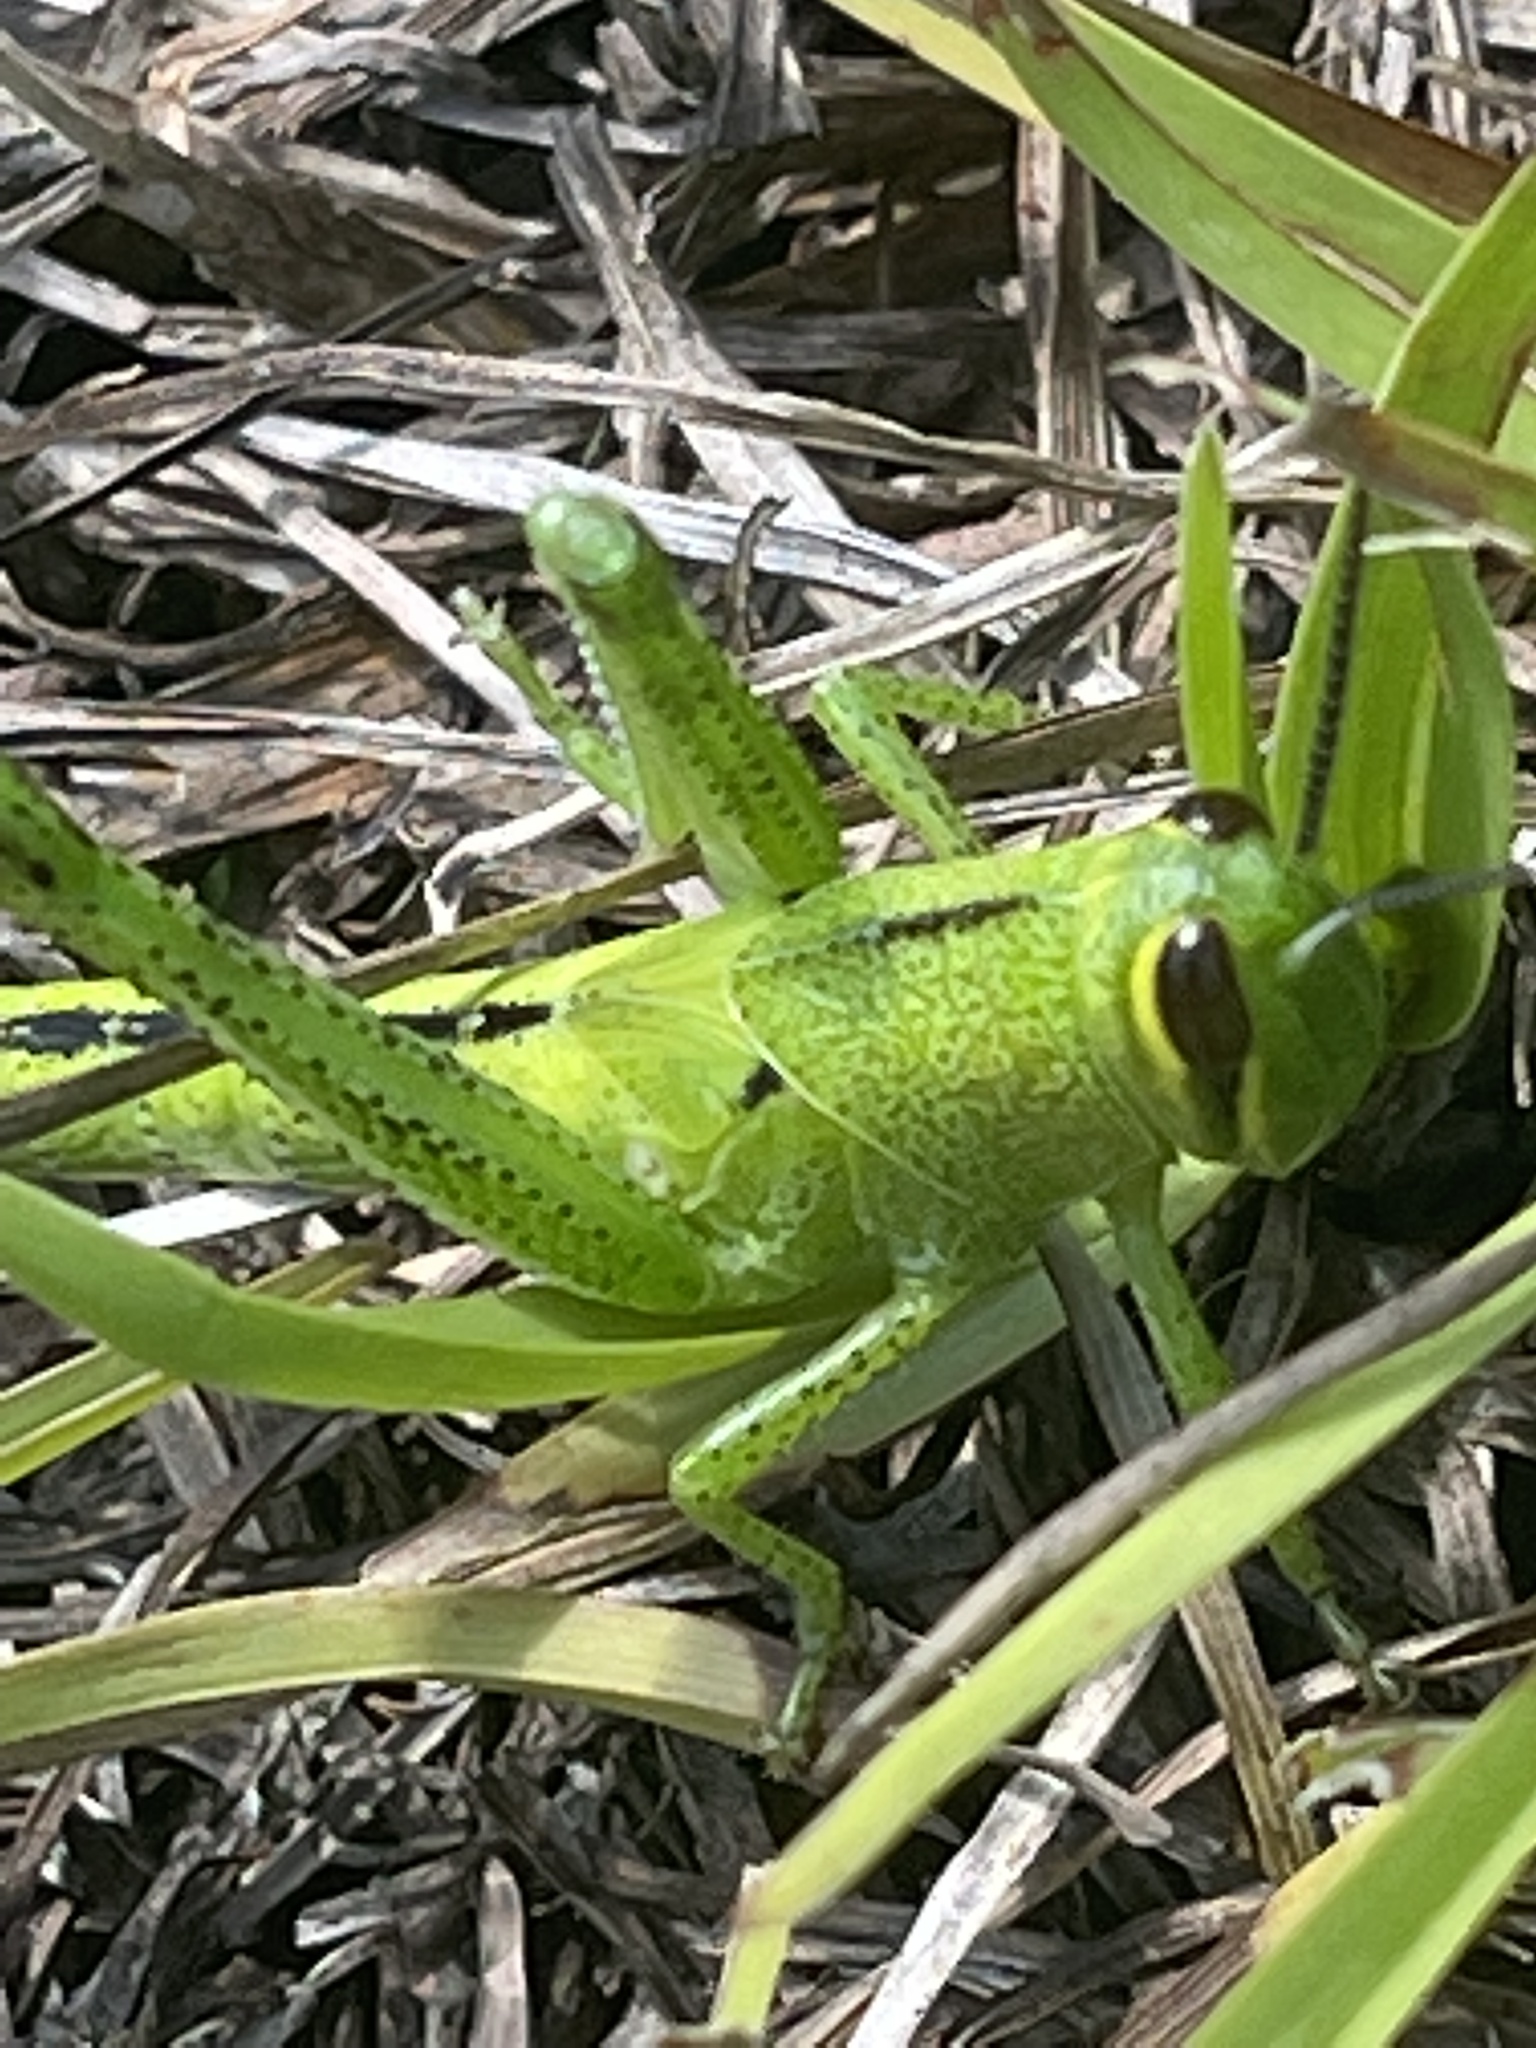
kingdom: Animalia
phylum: Arthropoda
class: Insecta
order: Orthoptera
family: Acrididae
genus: Schistocerca
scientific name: Schistocerca americana
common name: American bird locust
